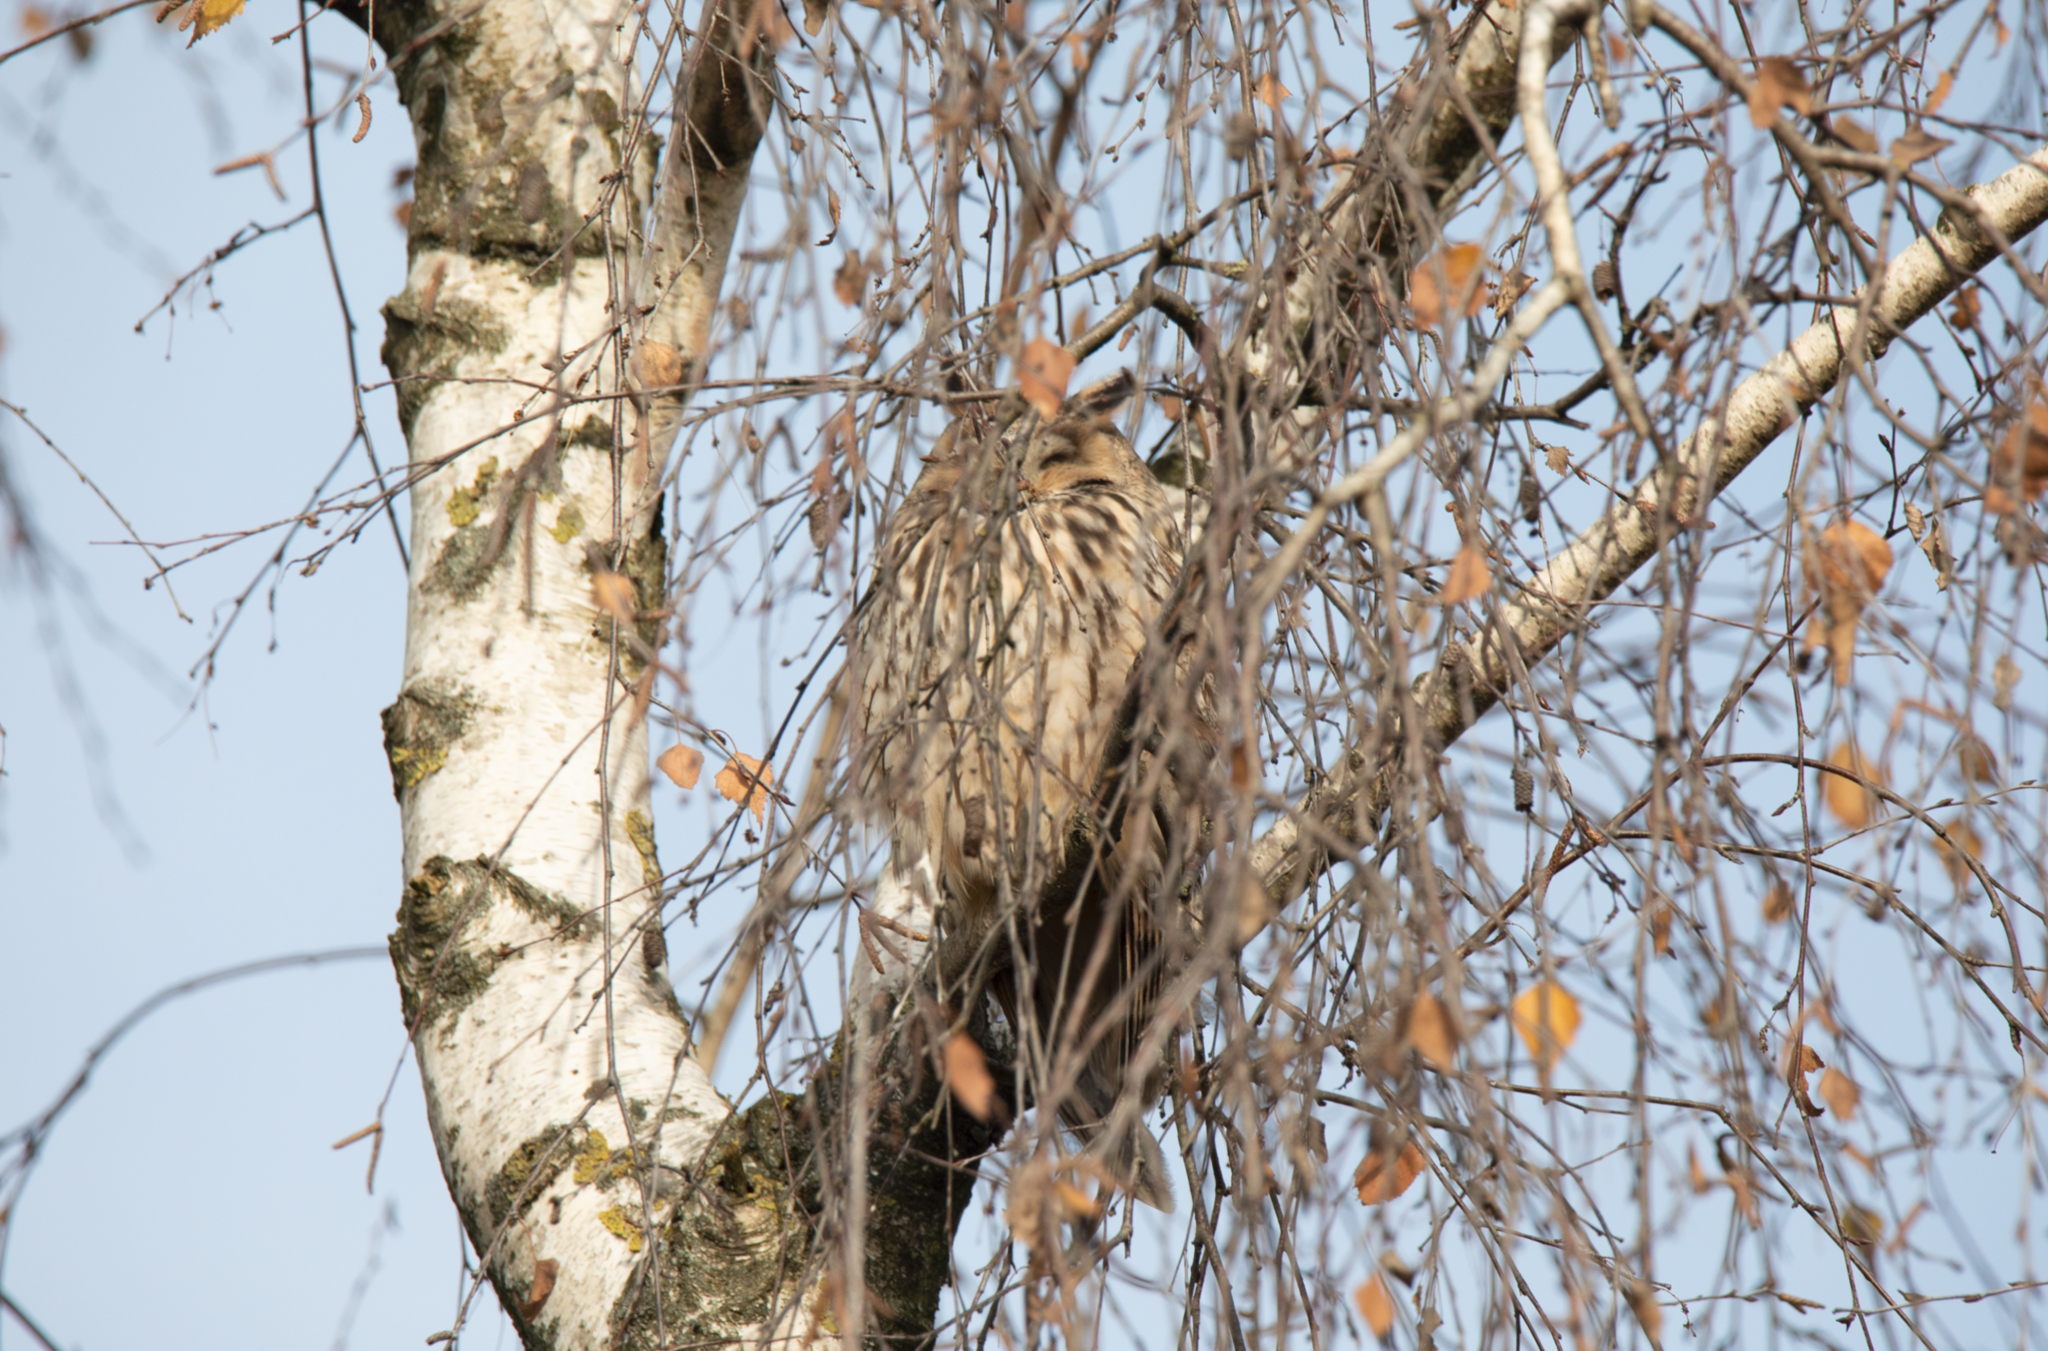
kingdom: Animalia
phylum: Chordata
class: Aves
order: Strigiformes
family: Strigidae
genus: Asio
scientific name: Asio otus
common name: Long-eared owl
